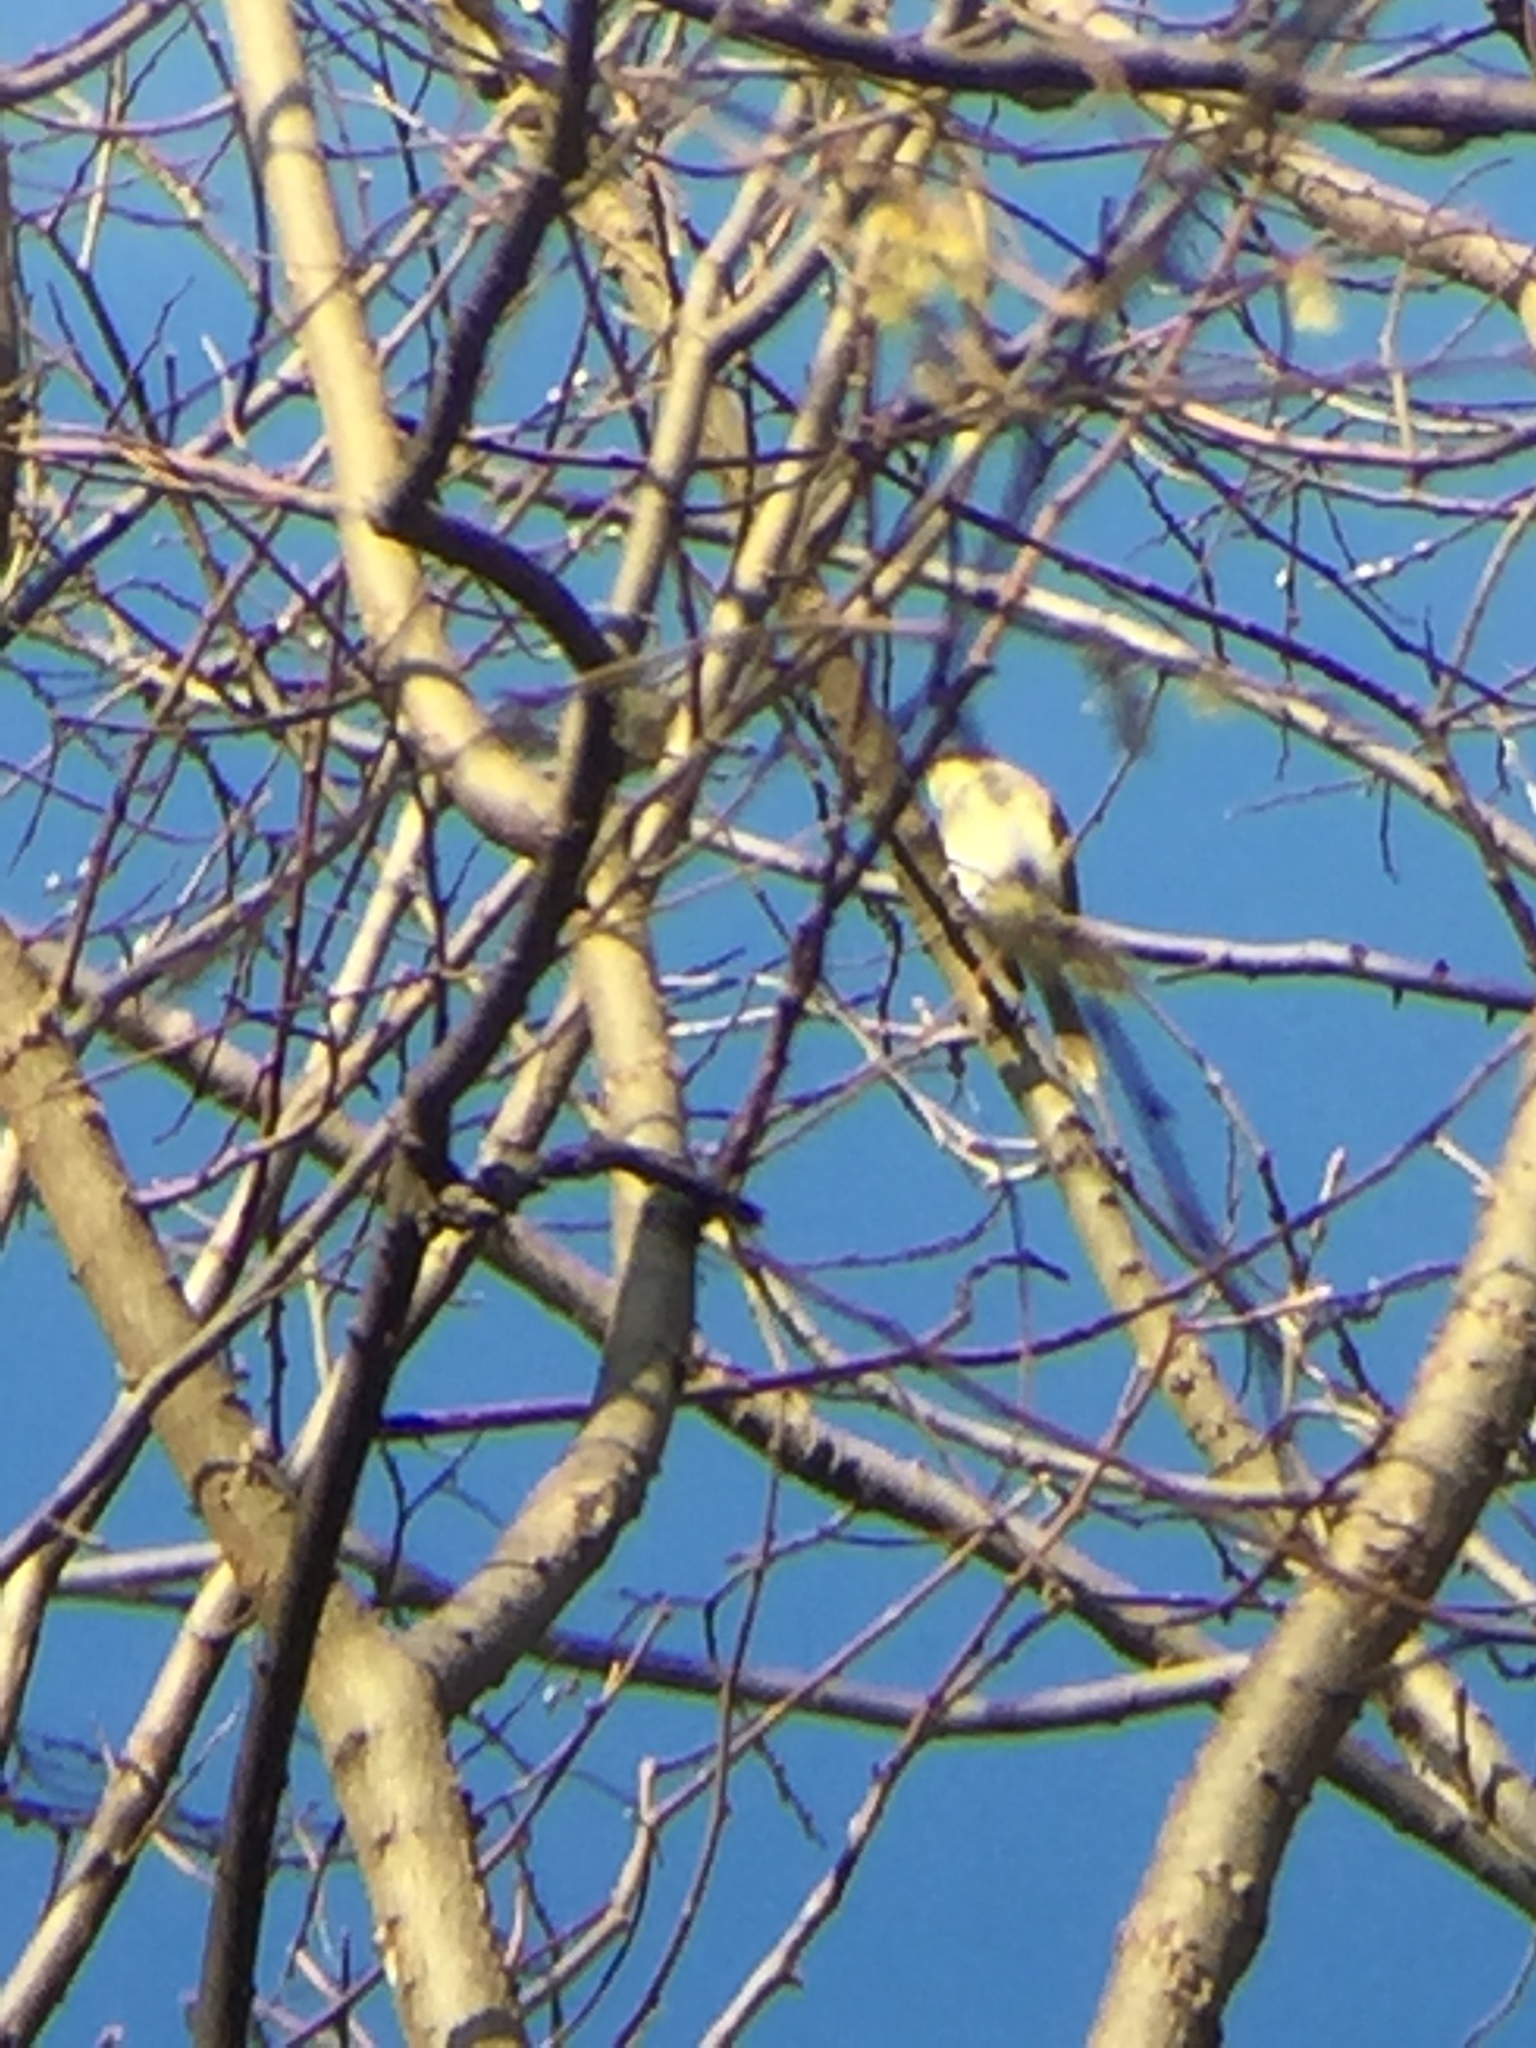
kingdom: Animalia
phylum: Chordata
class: Aves
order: Passeriformes
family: Tyrannidae
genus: Sayornis
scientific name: Sayornis phoebe
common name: Eastern phoebe
